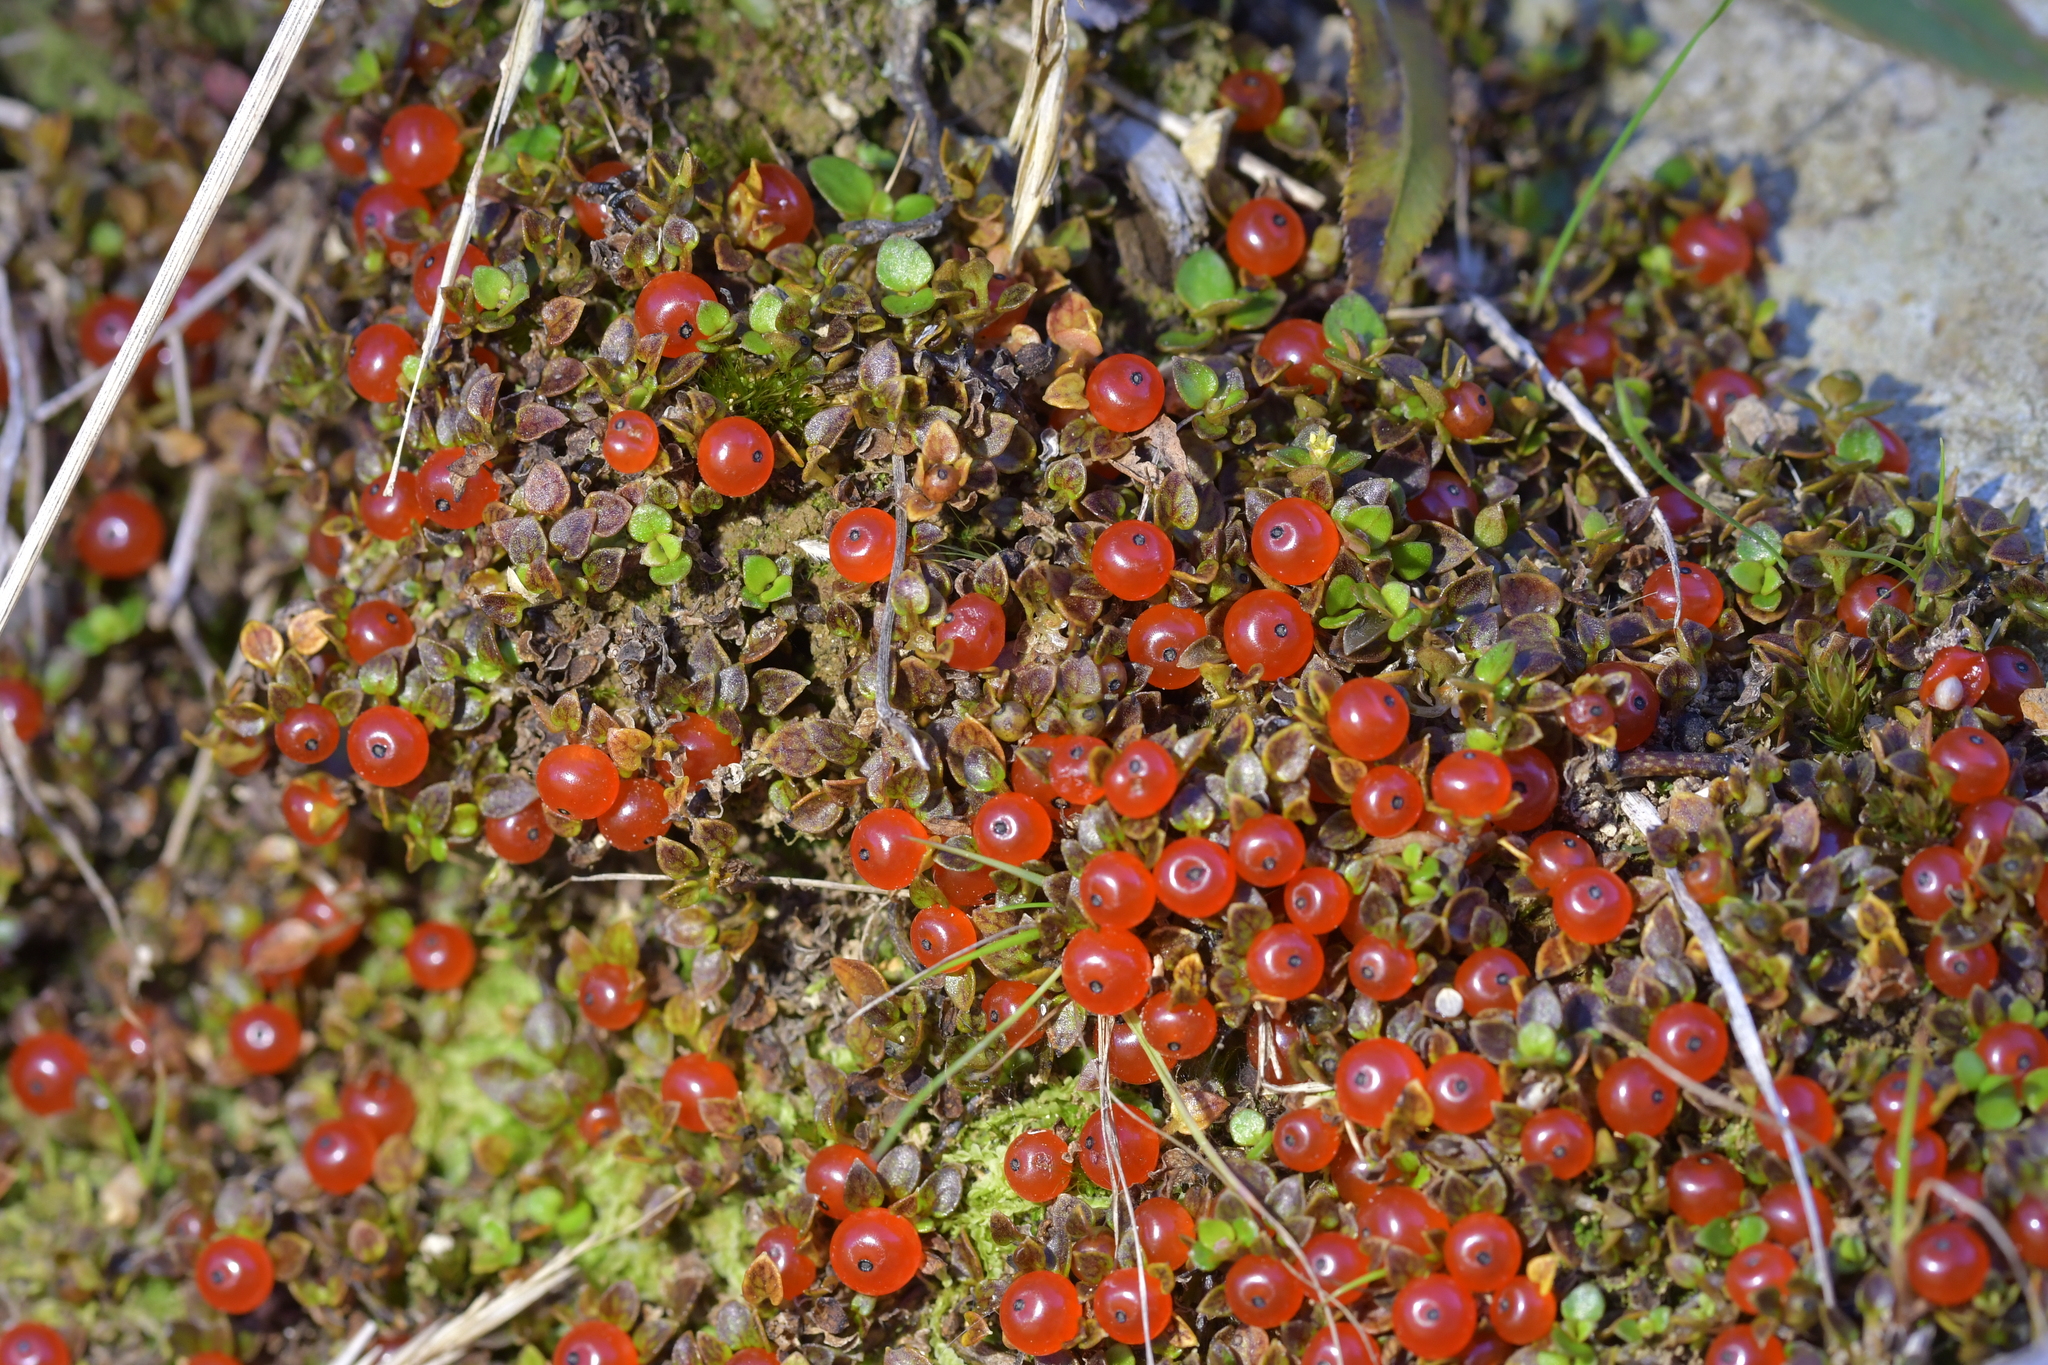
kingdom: Plantae
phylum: Tracheophyta
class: Magnoliopsida
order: Gentianales
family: Rubiaceae
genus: Nertera
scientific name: Nertera granadensis
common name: Beadplant
